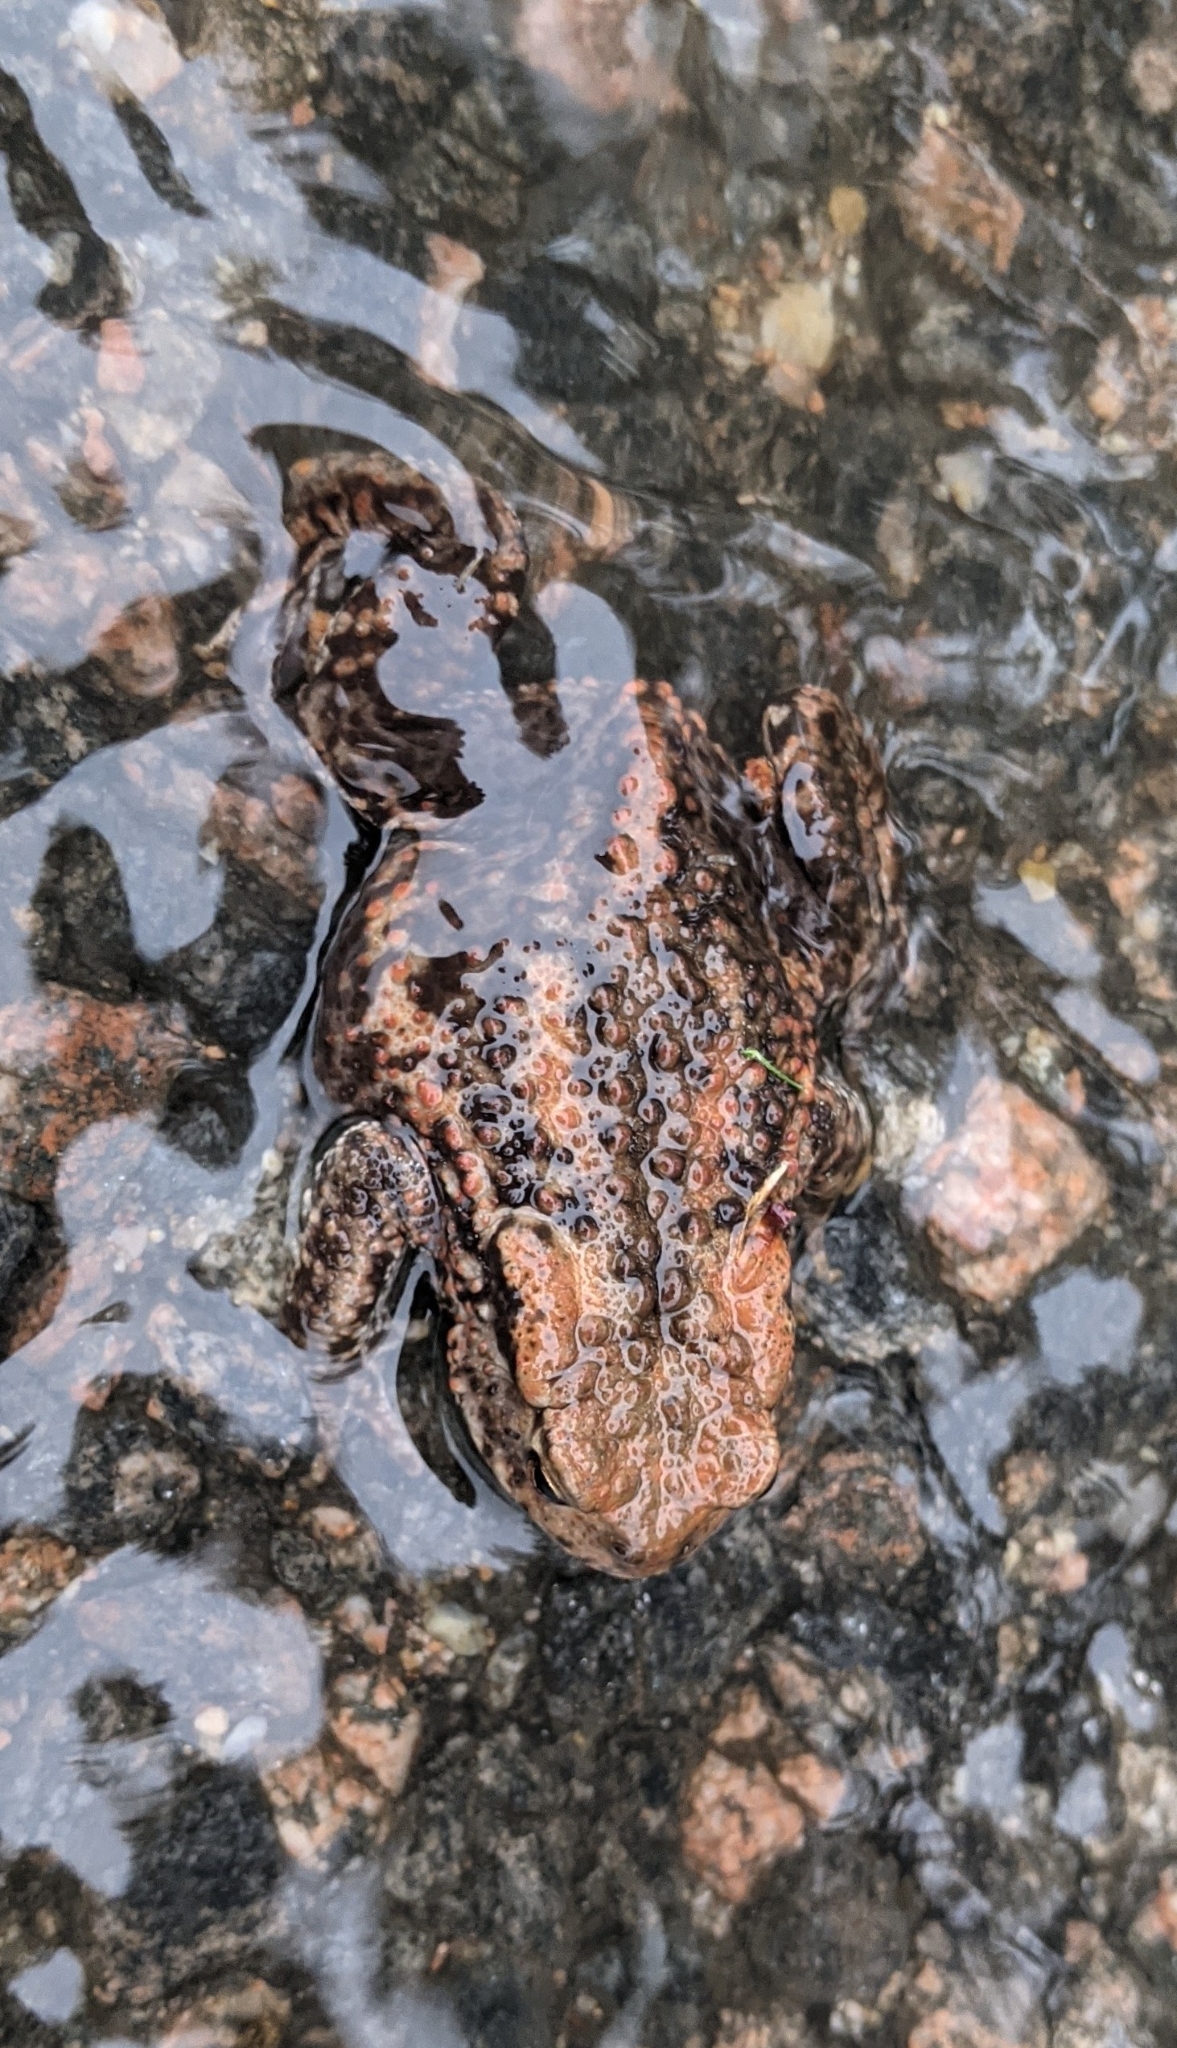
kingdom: Animalia
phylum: Chordata
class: Amphibia
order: Anura
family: Bufonidae
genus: Bufo
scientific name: Bufo bufo
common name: Common toad
